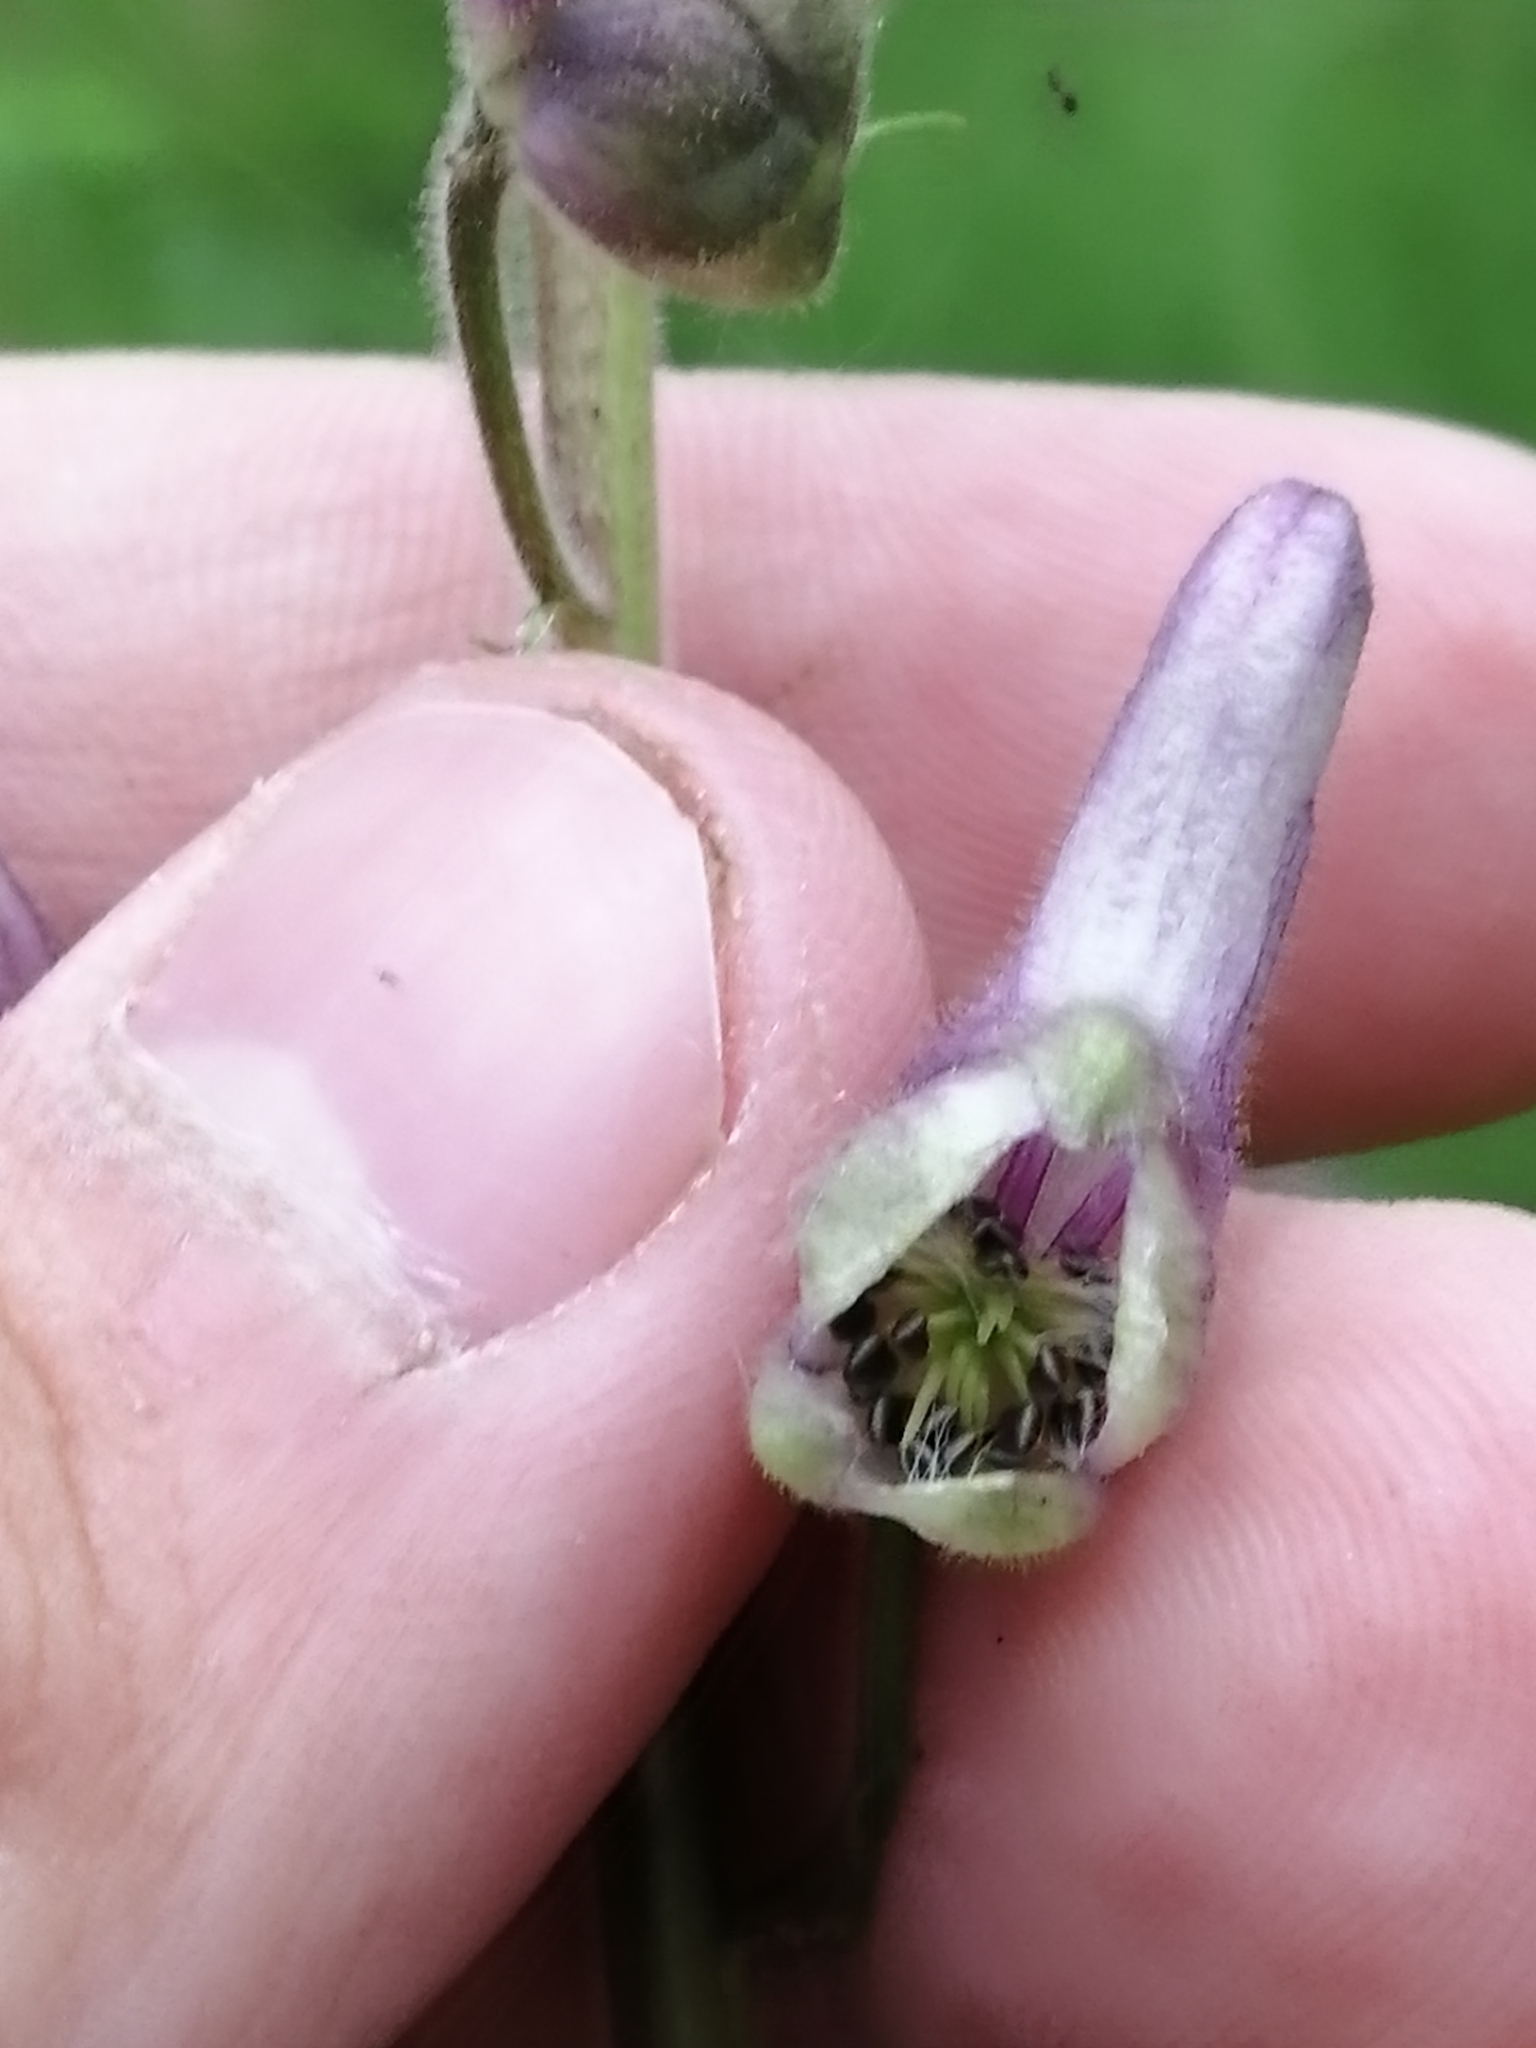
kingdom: Plantae
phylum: Tracheophyta
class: Magnoliopsida
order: Ranunculales
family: Ranunculaceae
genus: Aconitum
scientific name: Aconitum septentrionale
